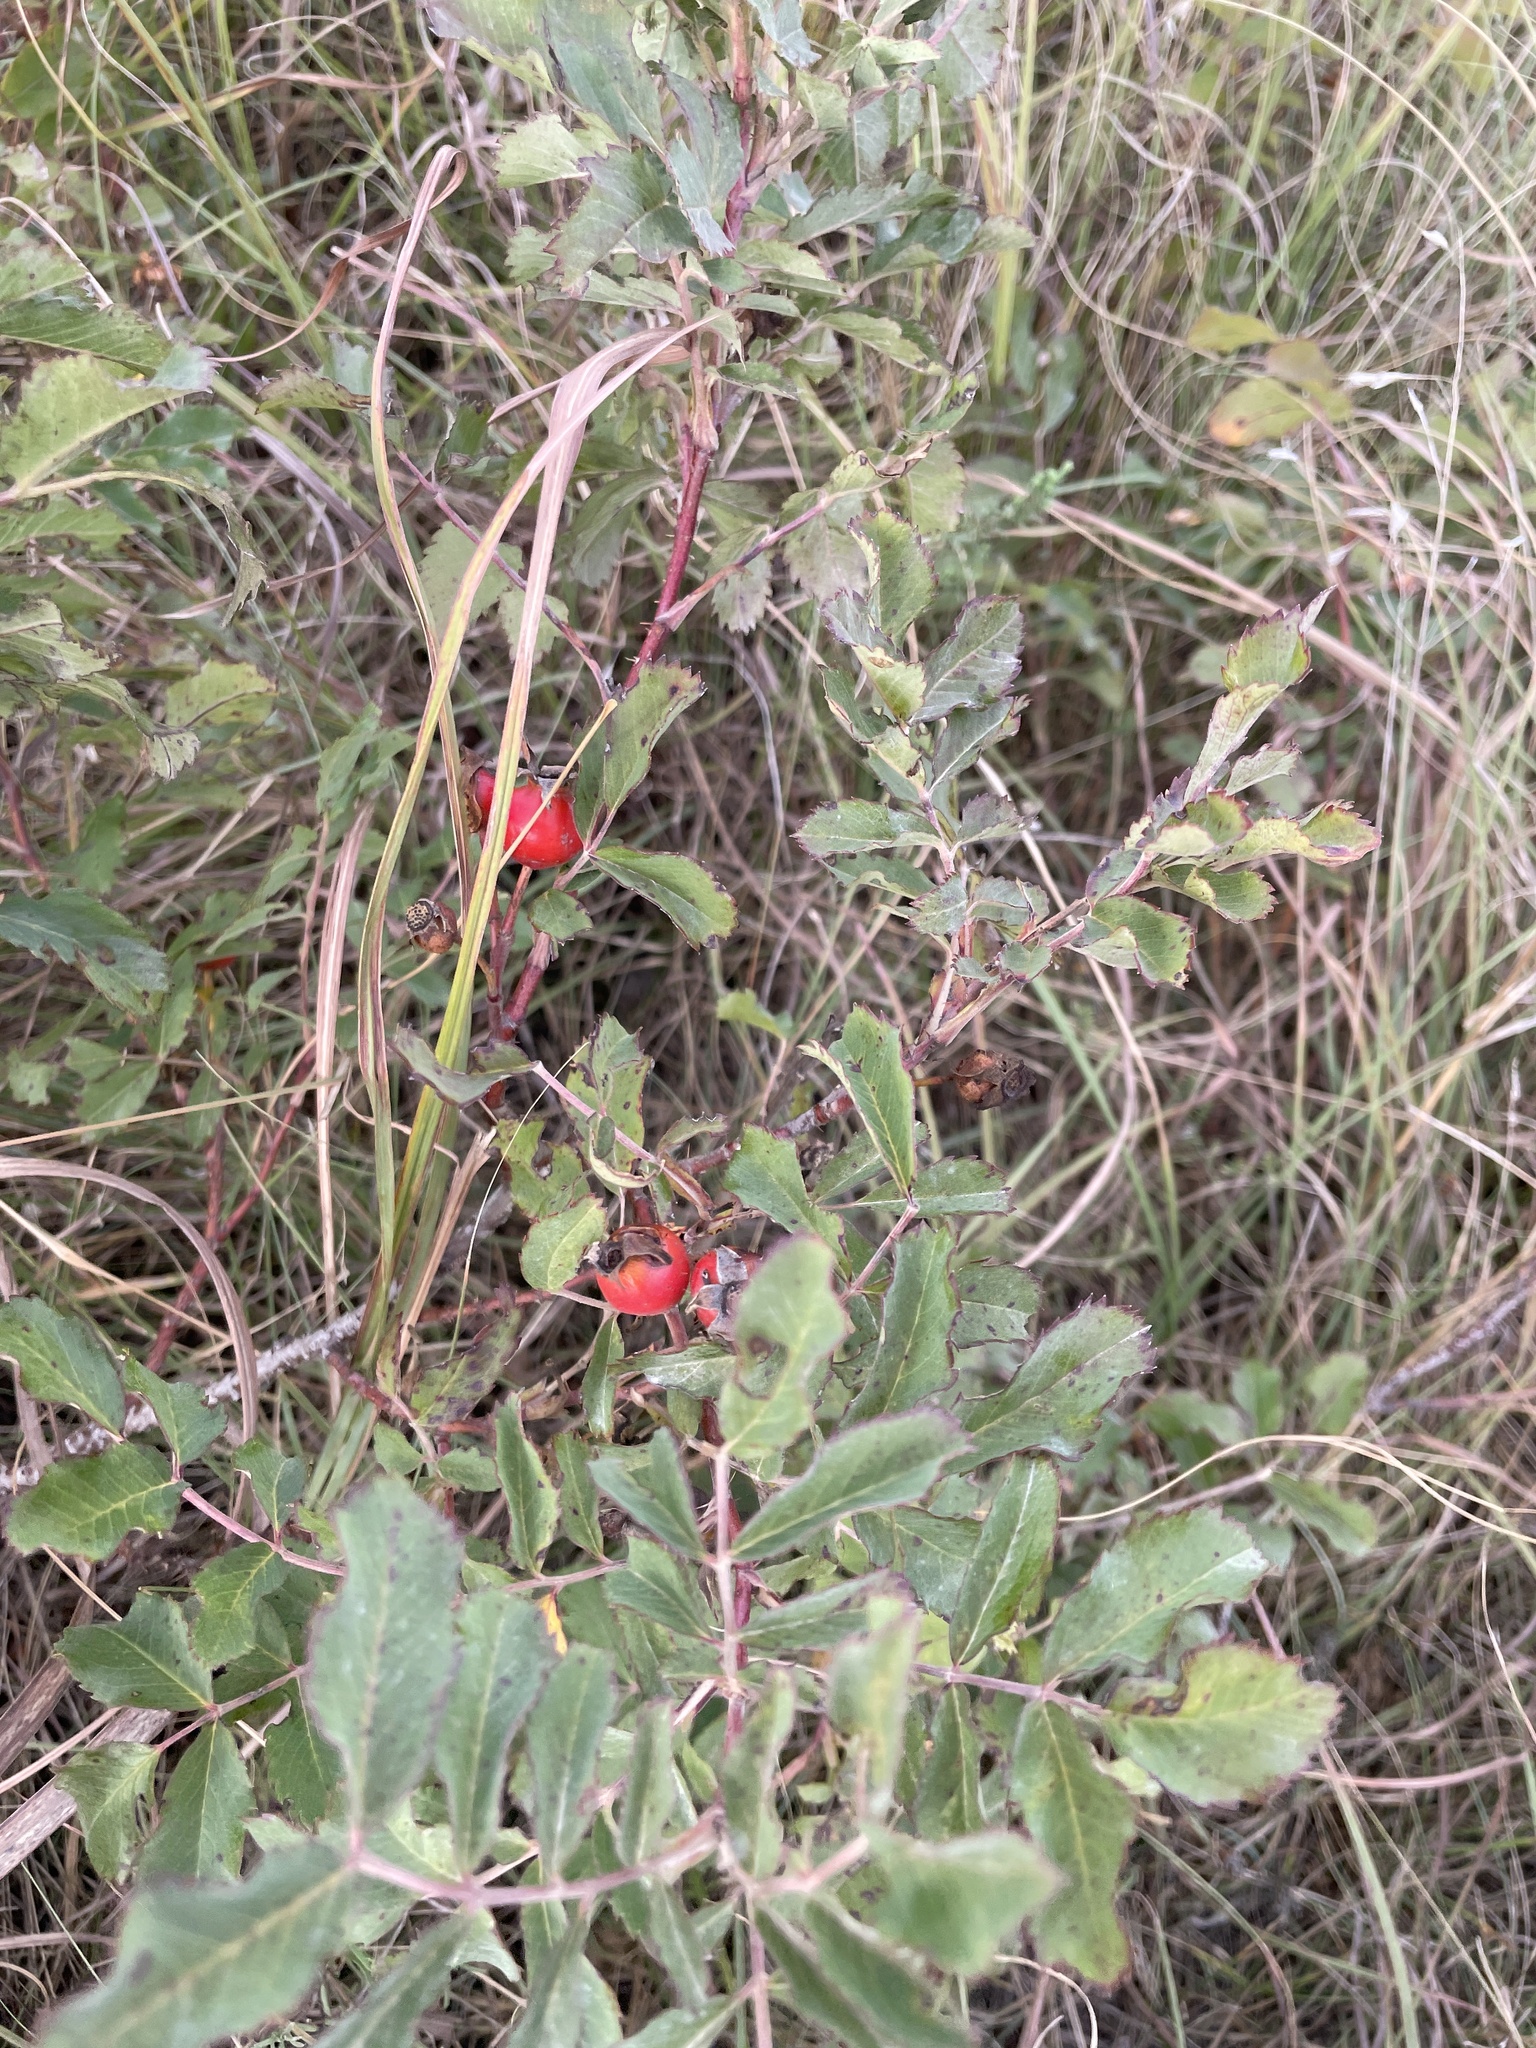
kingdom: Plantae
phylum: Tracheophyta
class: Magnoliopsida
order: Rosales
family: Rosaceae
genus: Rosa
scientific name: Rosa arkansana
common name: Prairie rose
